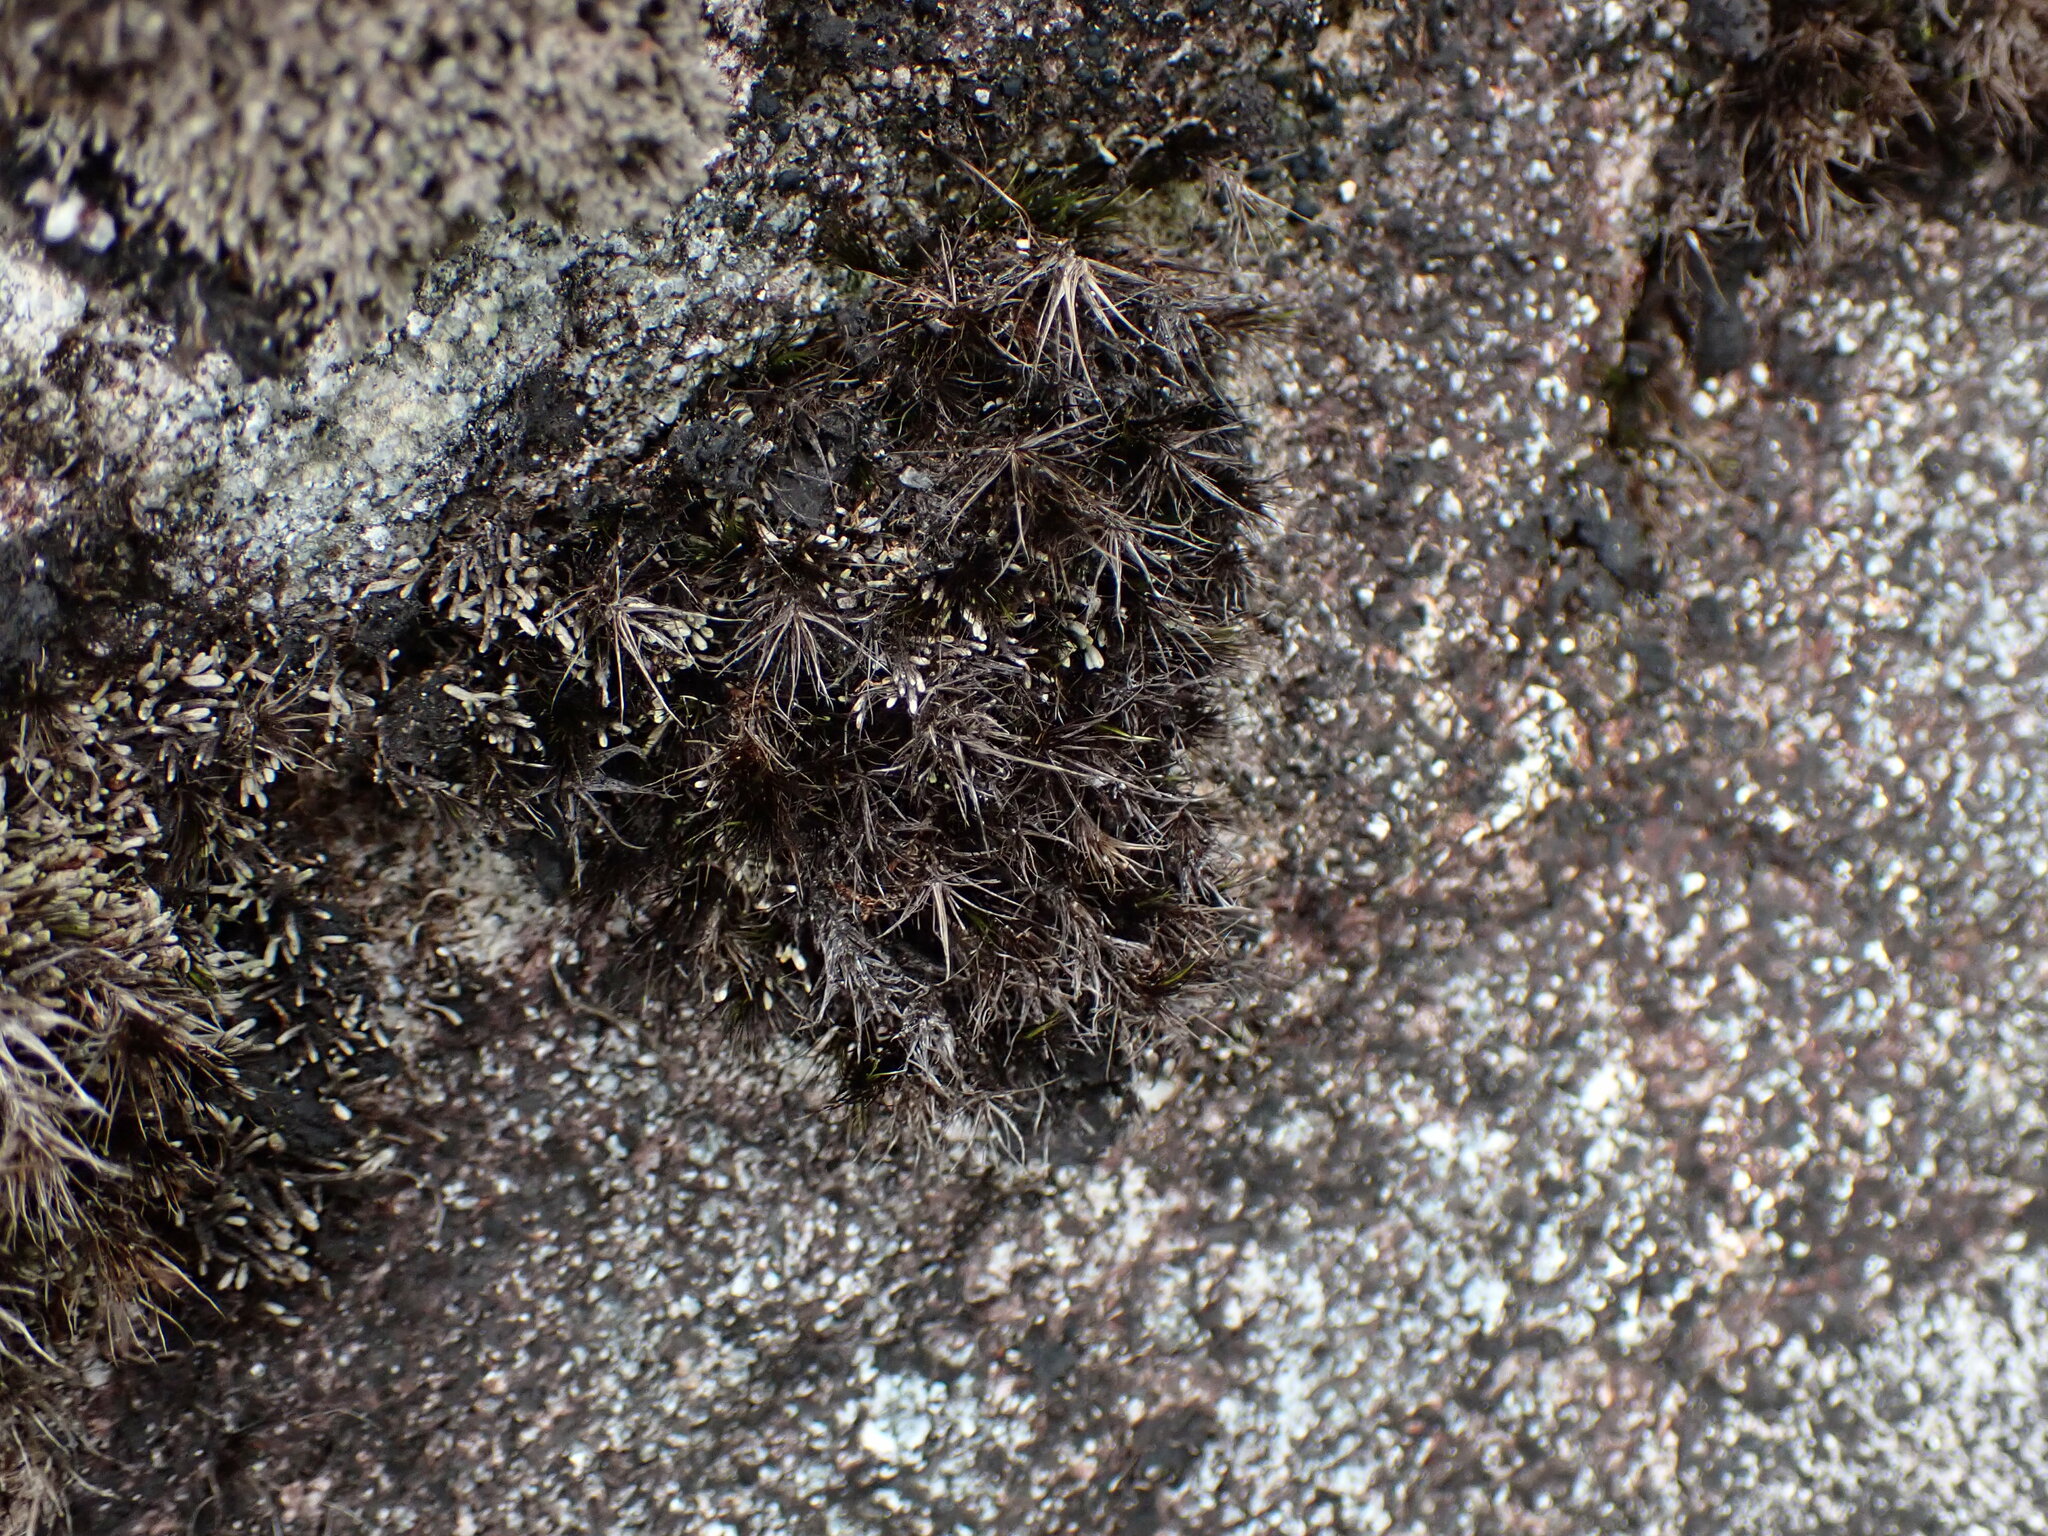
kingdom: Plantae
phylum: Bryophyta
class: Bryopsida
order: Dicranales
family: Leucobryaceae
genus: Campylopus
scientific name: Campylopus atrovirens
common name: Bristly swan-neck moss
